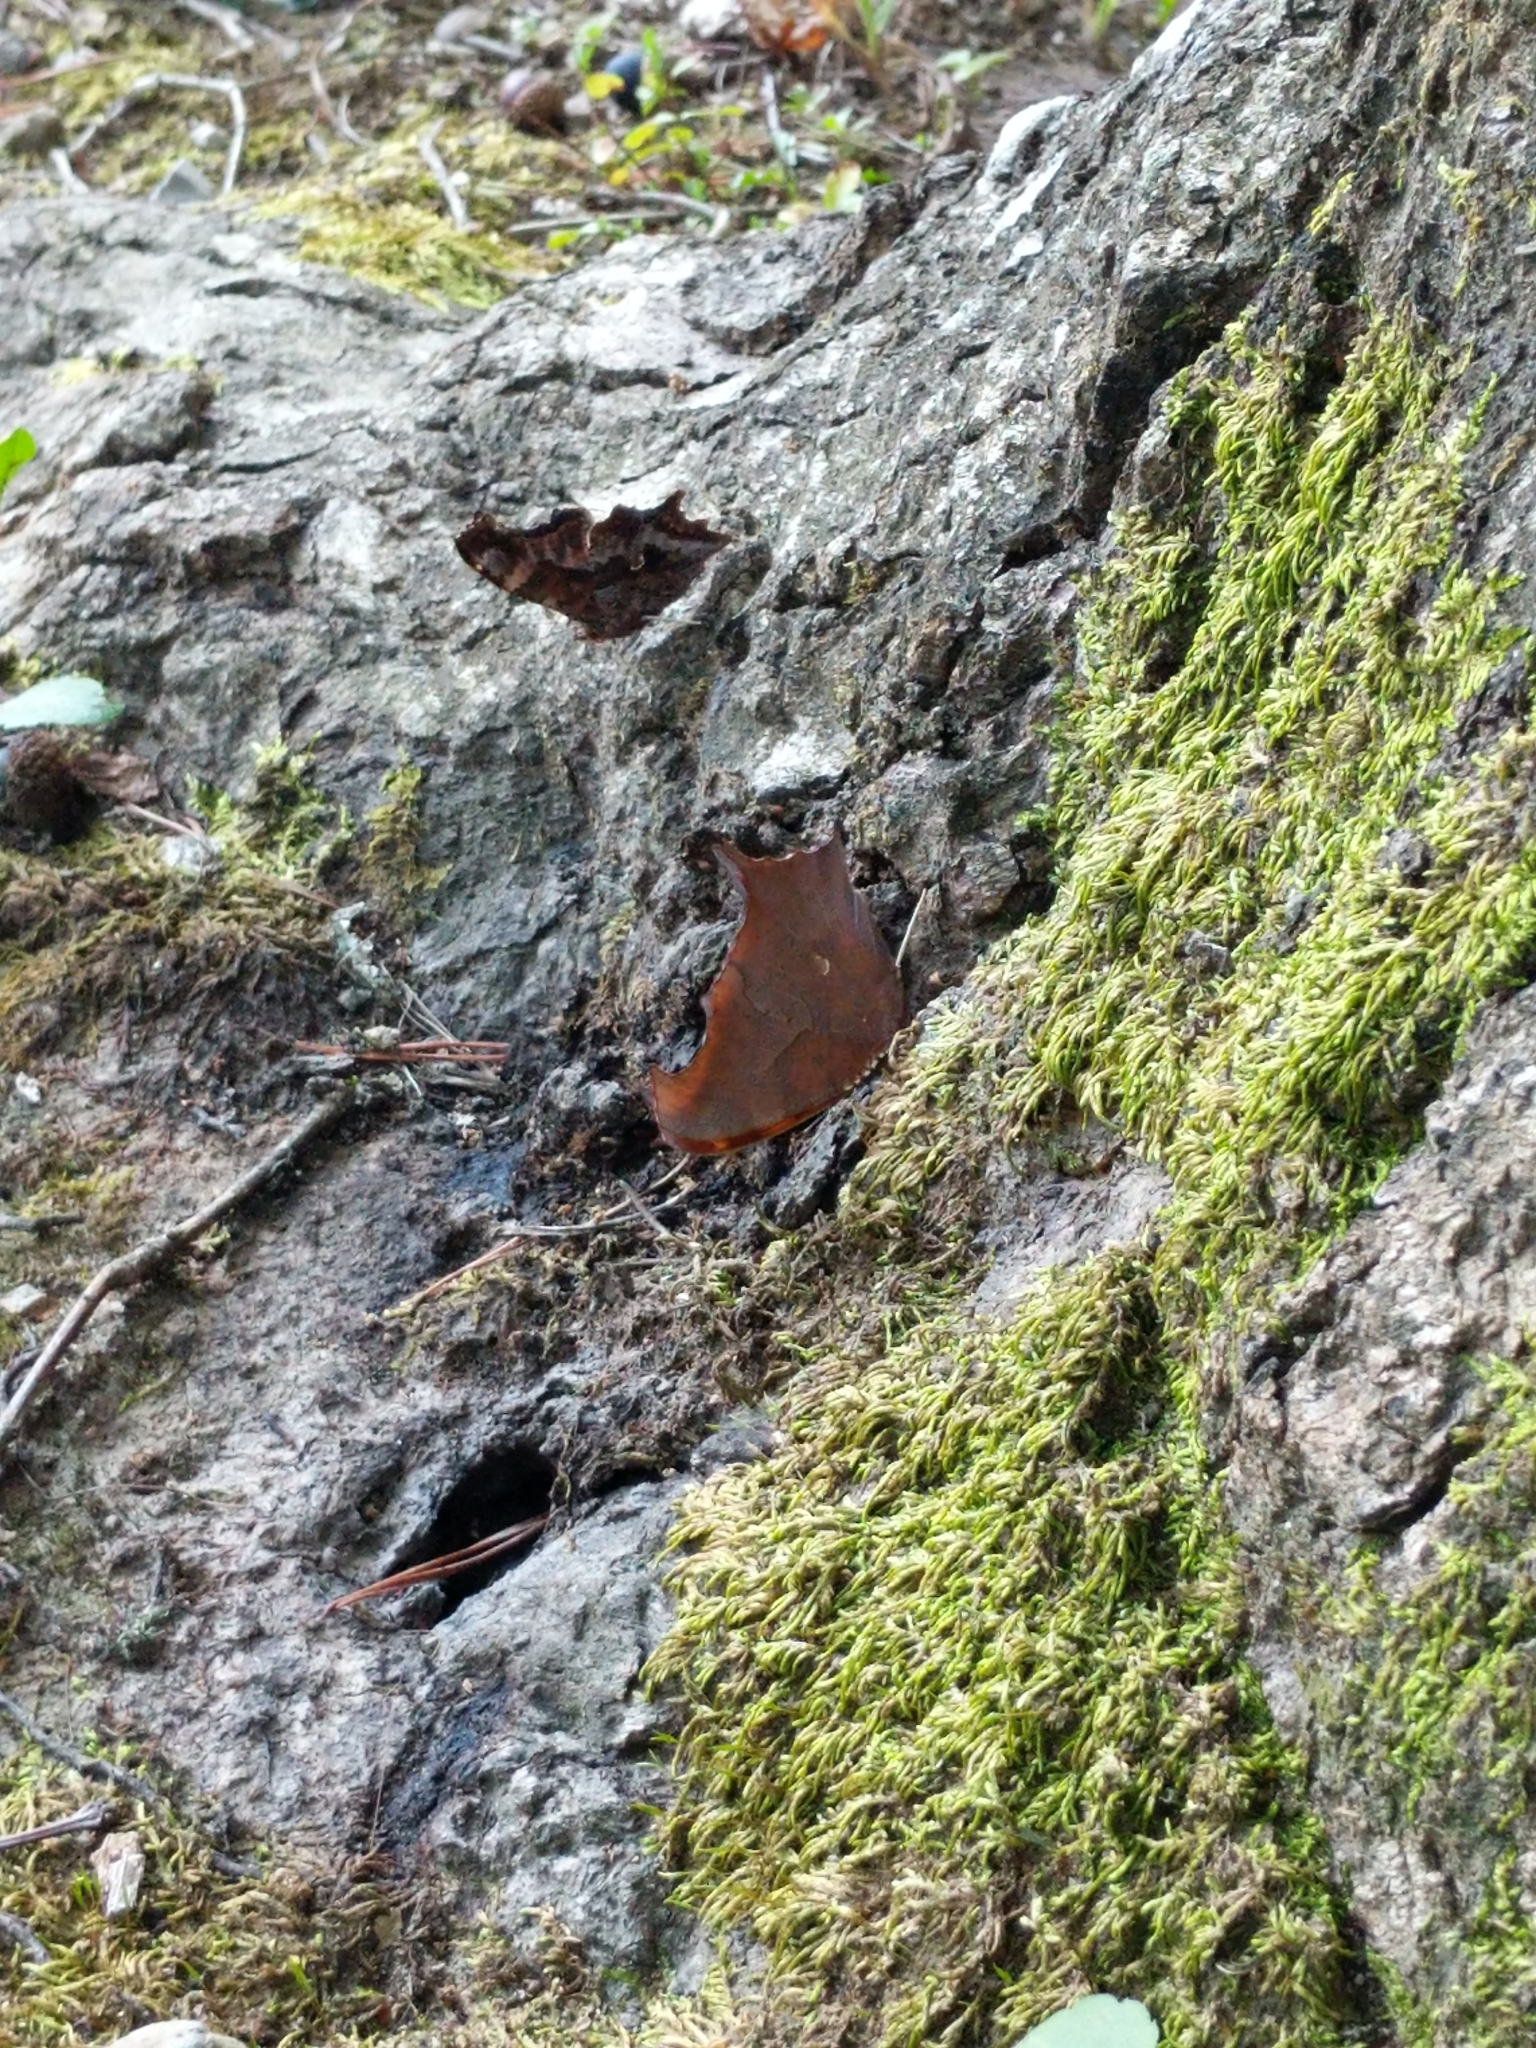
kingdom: Animalia
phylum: Arthropoda
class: Insecta
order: Lepidoptera
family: Nymphalidae
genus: Polygonia
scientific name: Polygonia interrogationis
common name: Question mark
